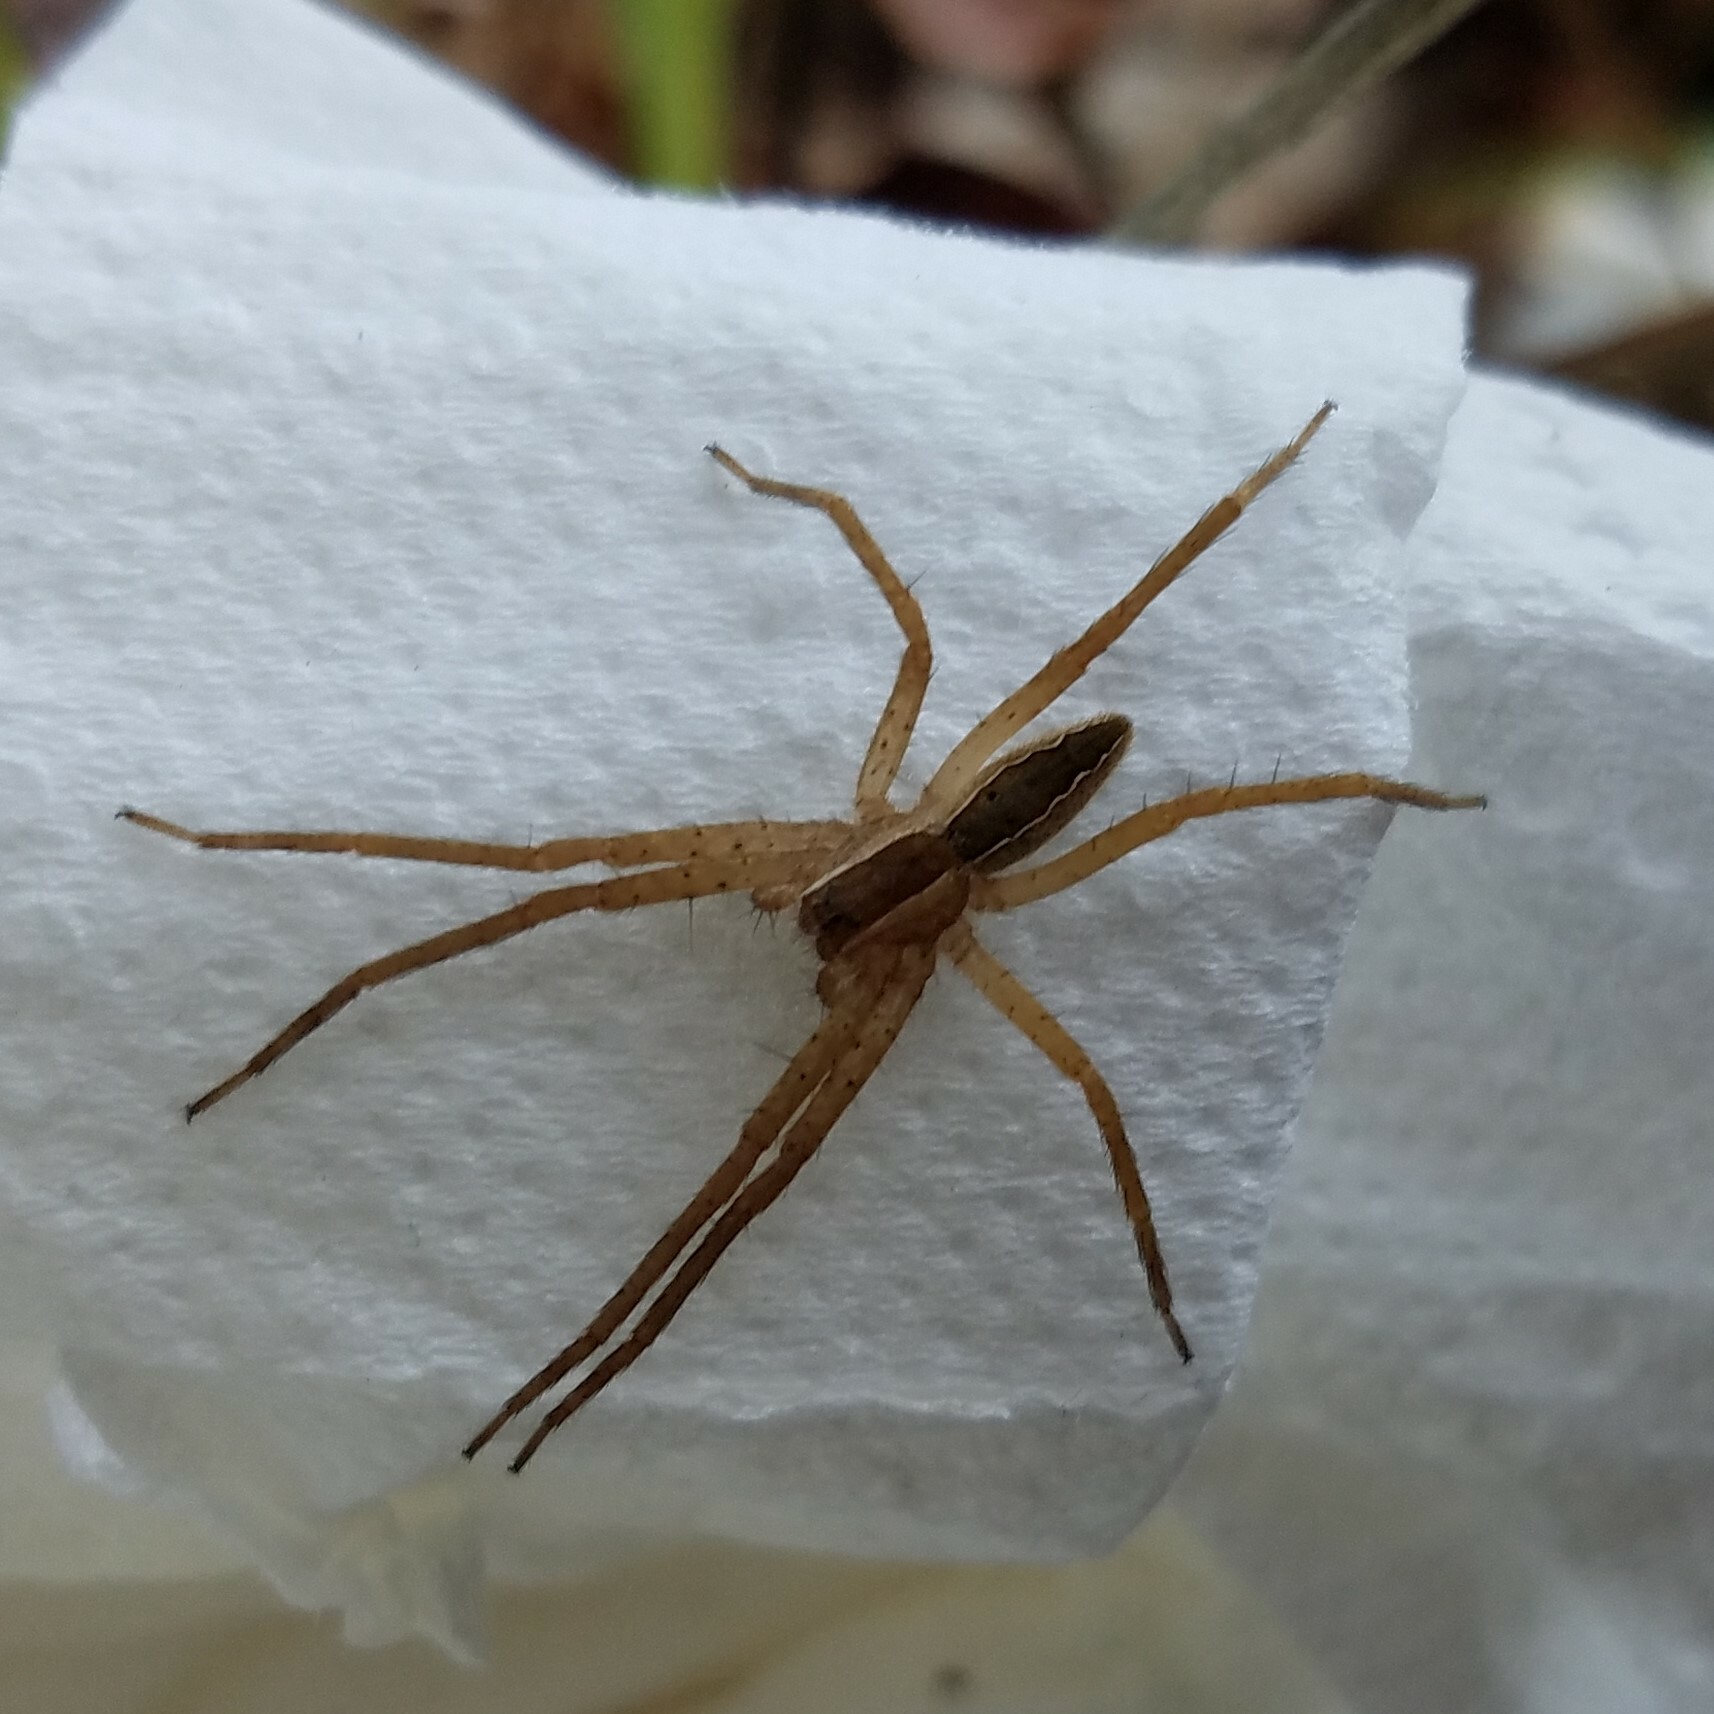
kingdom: Animalia
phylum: Arthropoda
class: Arachnida
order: Araneae
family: Pisauridae
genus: Pisaurina
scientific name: Pisaurina mira
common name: American nursery web spider
